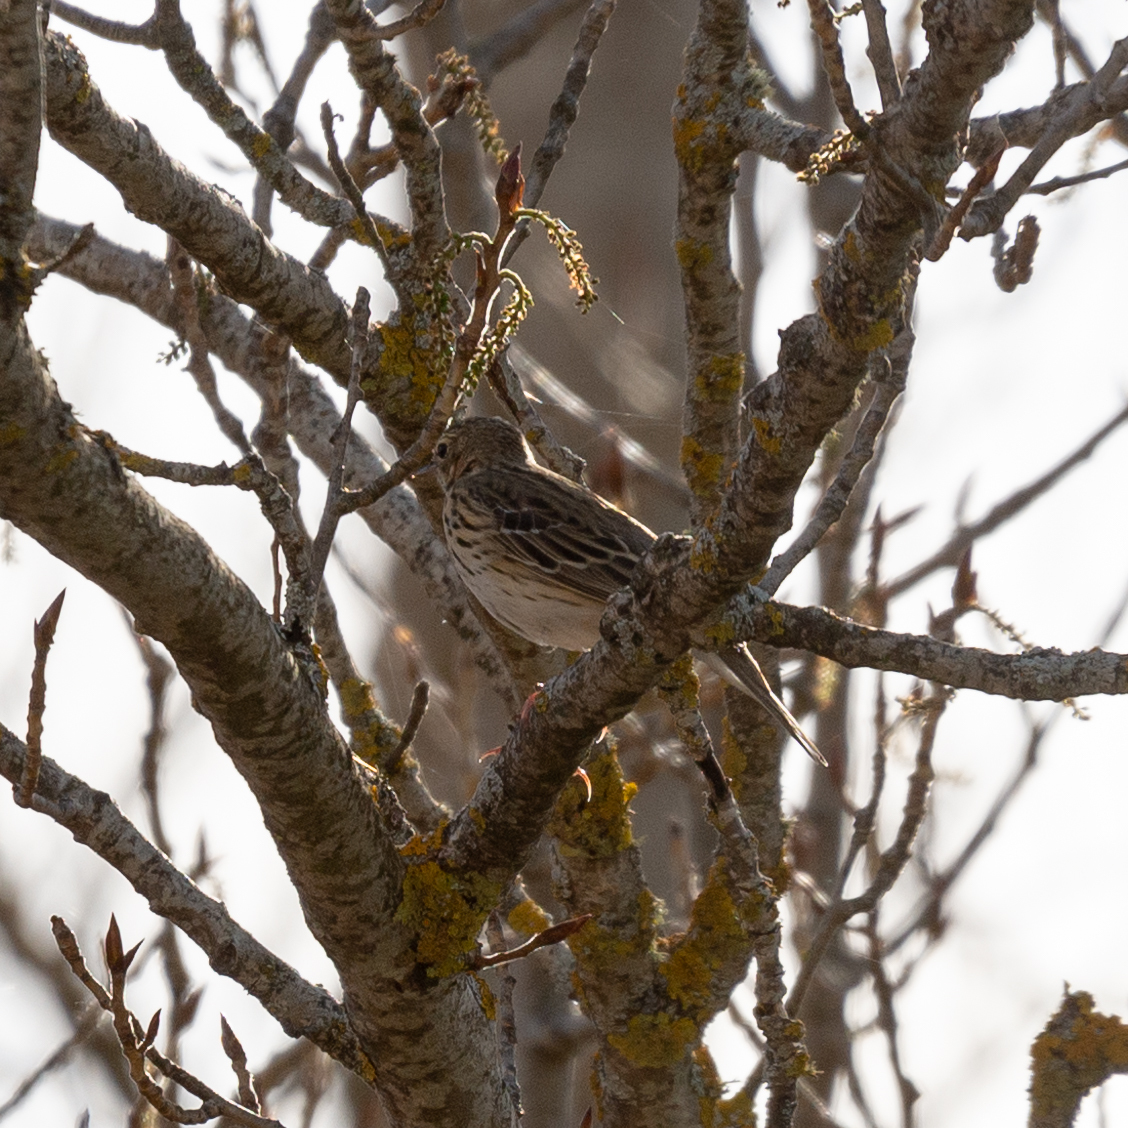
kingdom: Animalia
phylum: Chordata
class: Aves
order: Passeriformes
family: Motacillidae
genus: Anthus
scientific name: Anthus trivialis
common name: Tree pipit
